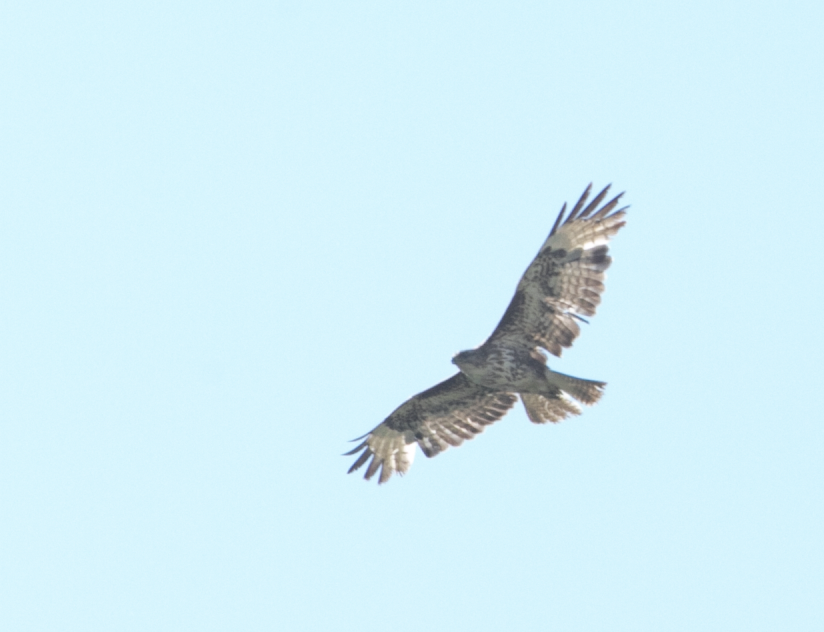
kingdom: Animalia
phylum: Chordata
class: Aves
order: Accipitriformes
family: Accipitridae
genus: Buteo
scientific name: Buteo buteo
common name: Common buzzard
